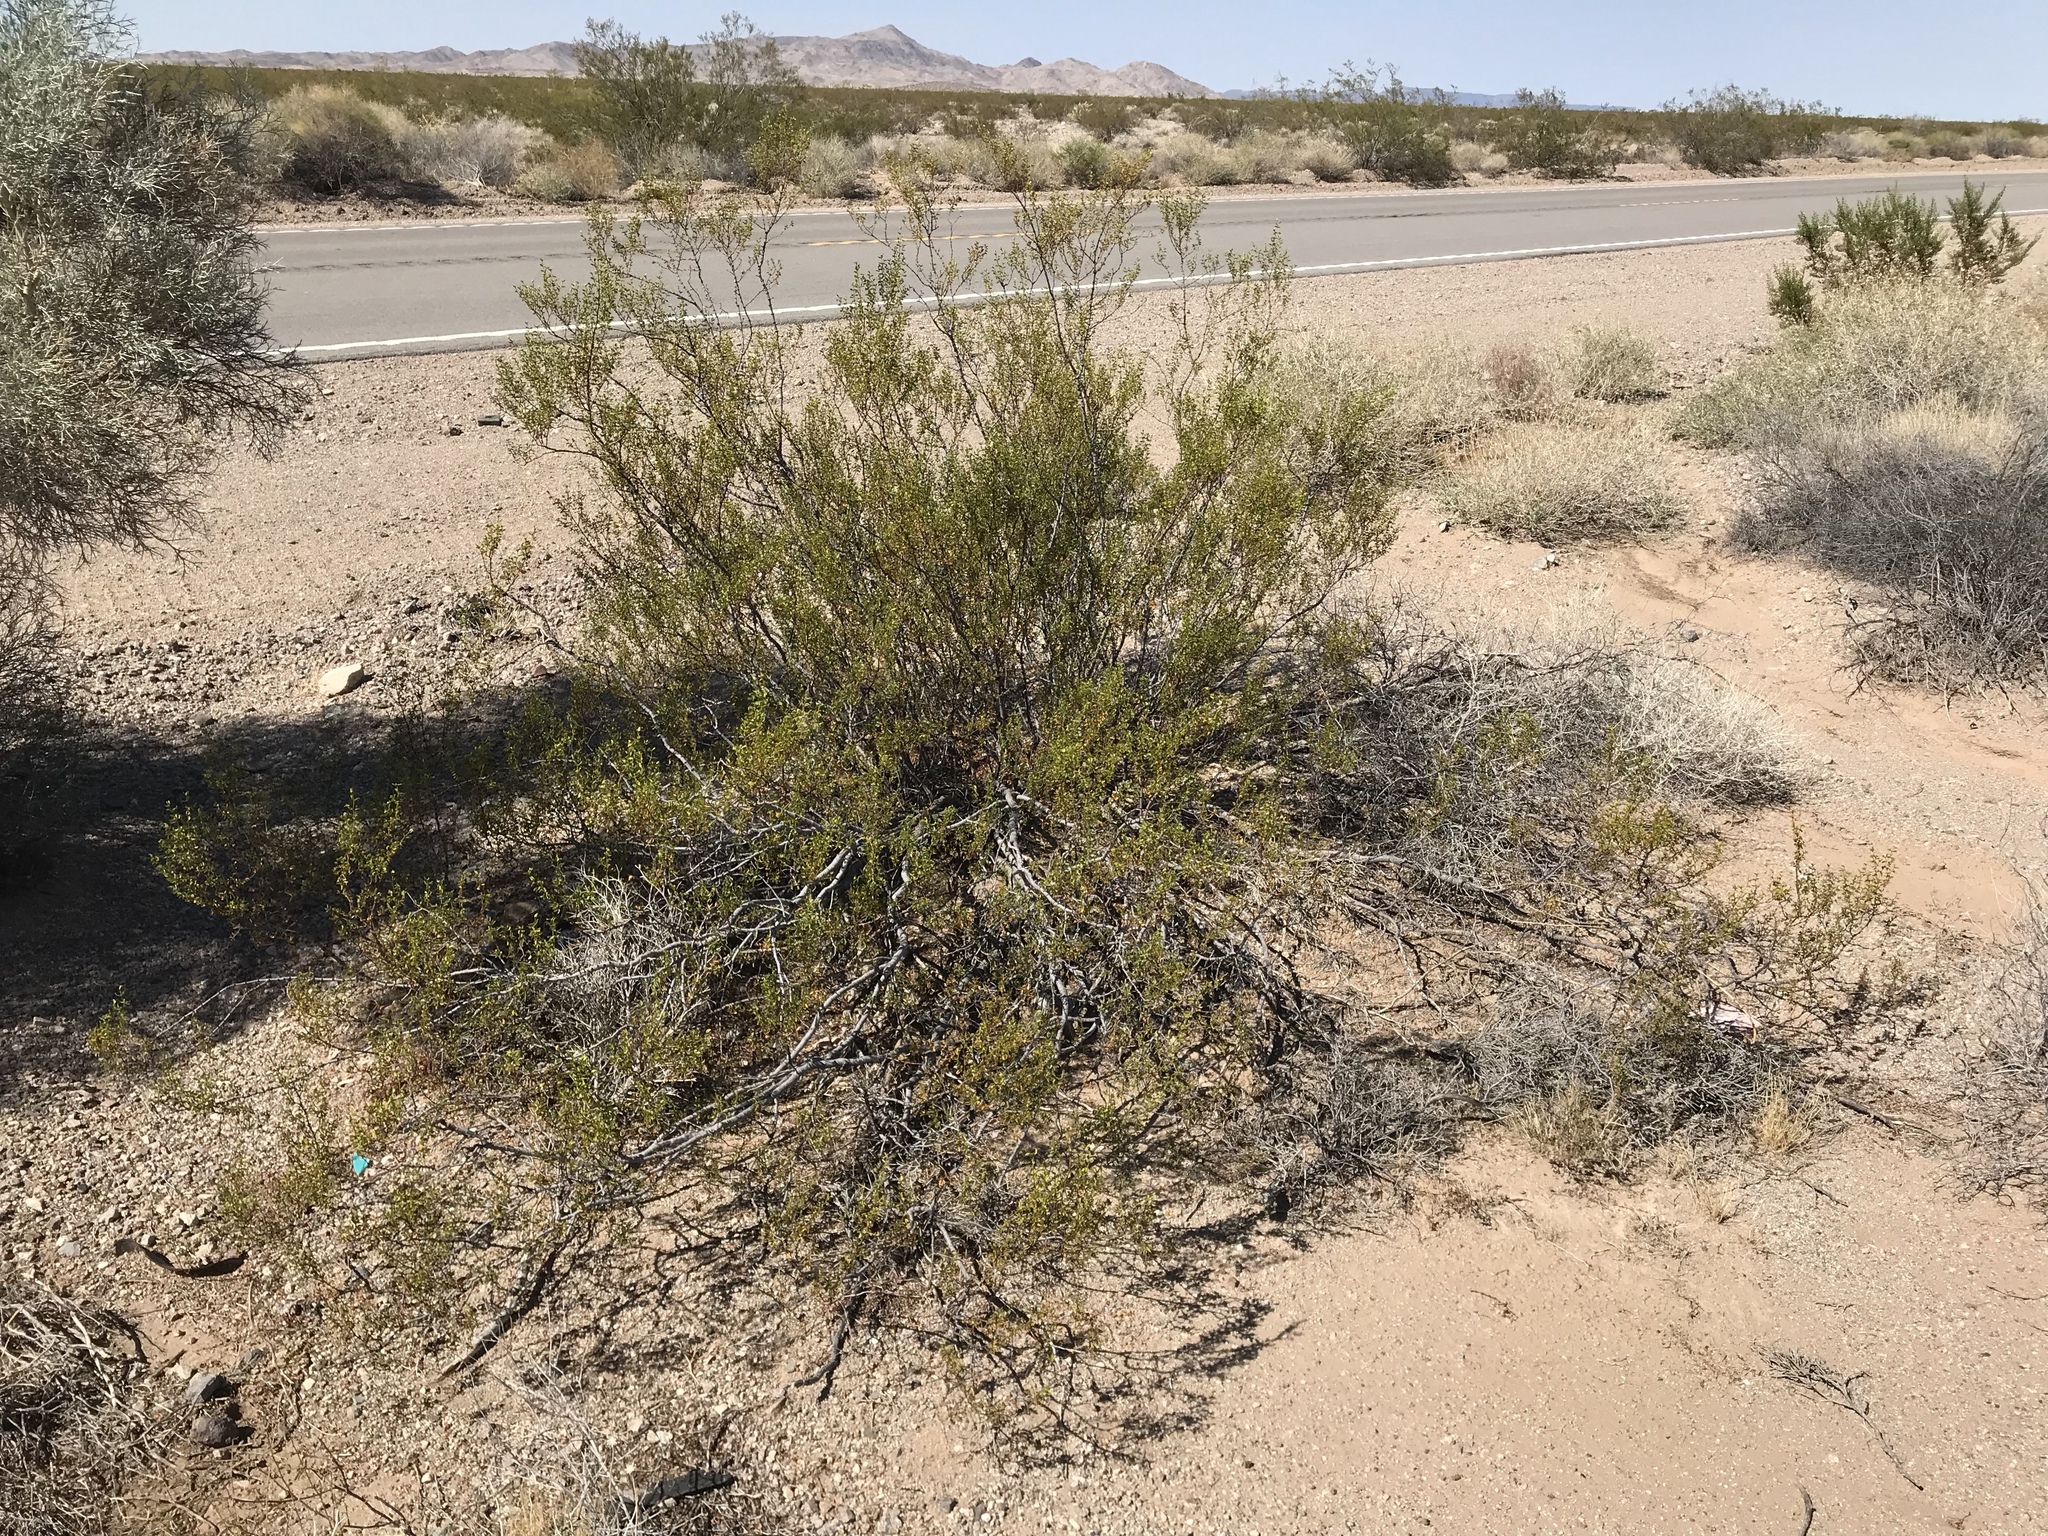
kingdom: Plantae
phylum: Tracheophyta
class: Magnoliopsida
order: Zygophyllales
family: Zygophyllaceae
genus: Larrea
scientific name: Larrea tridentata
